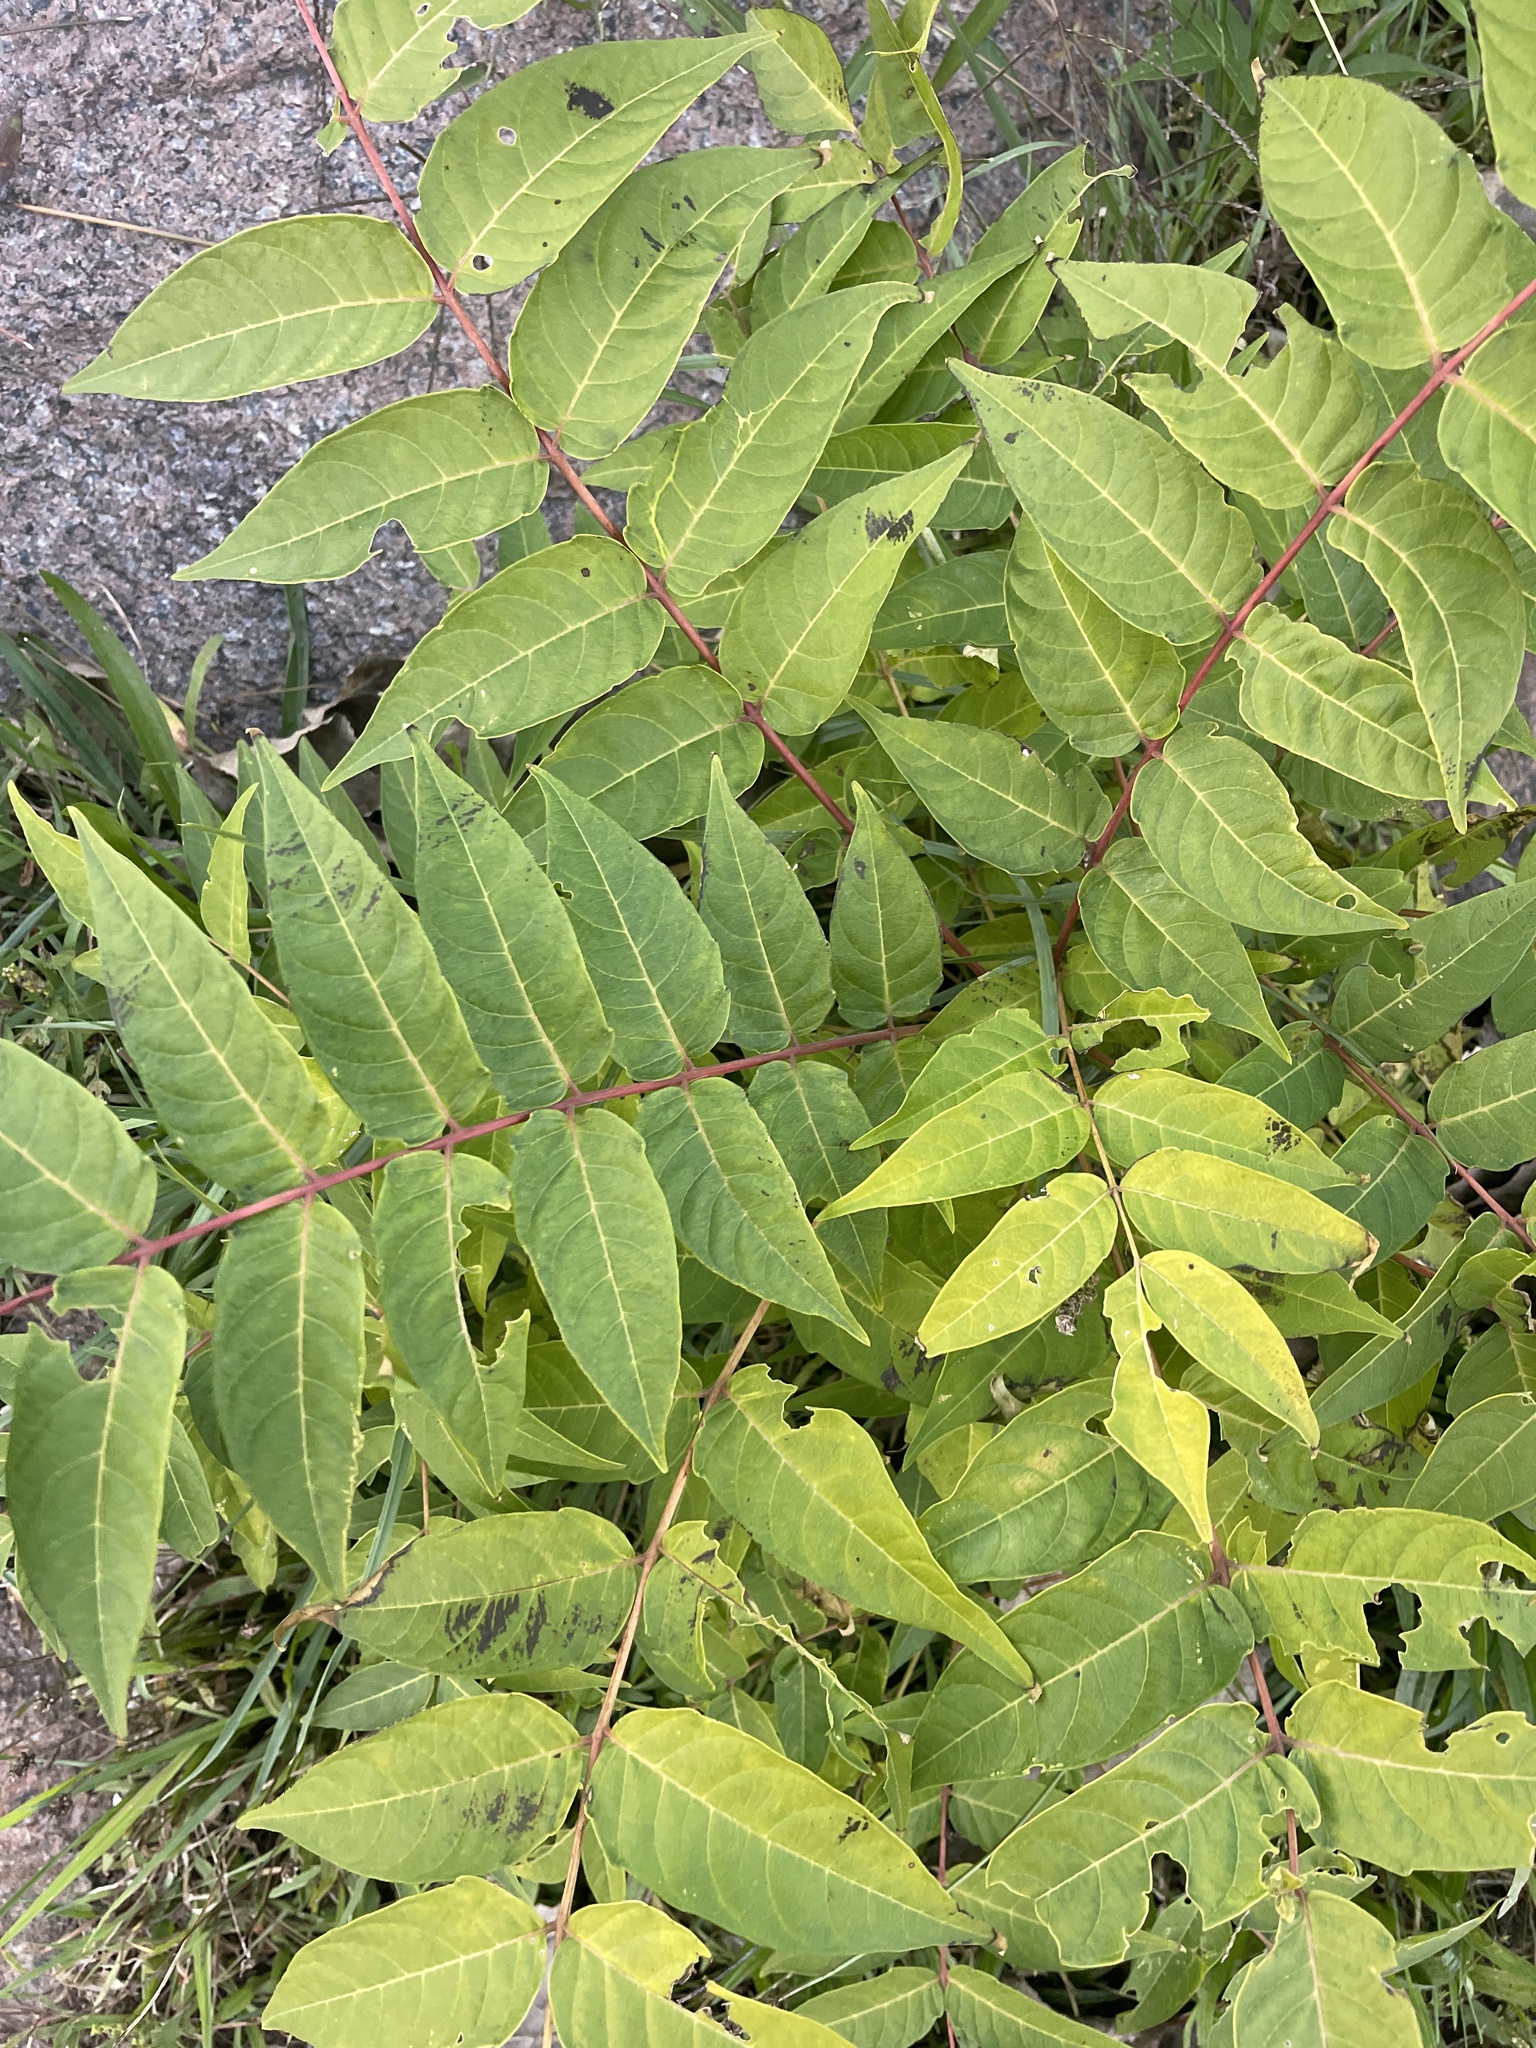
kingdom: Plantae
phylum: Tracheophyta
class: Magnoliopsida
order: Sapindales
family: Simaroubaceae
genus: Ailanthus
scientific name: Ailanthus altissima
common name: Tree-of-heaven
